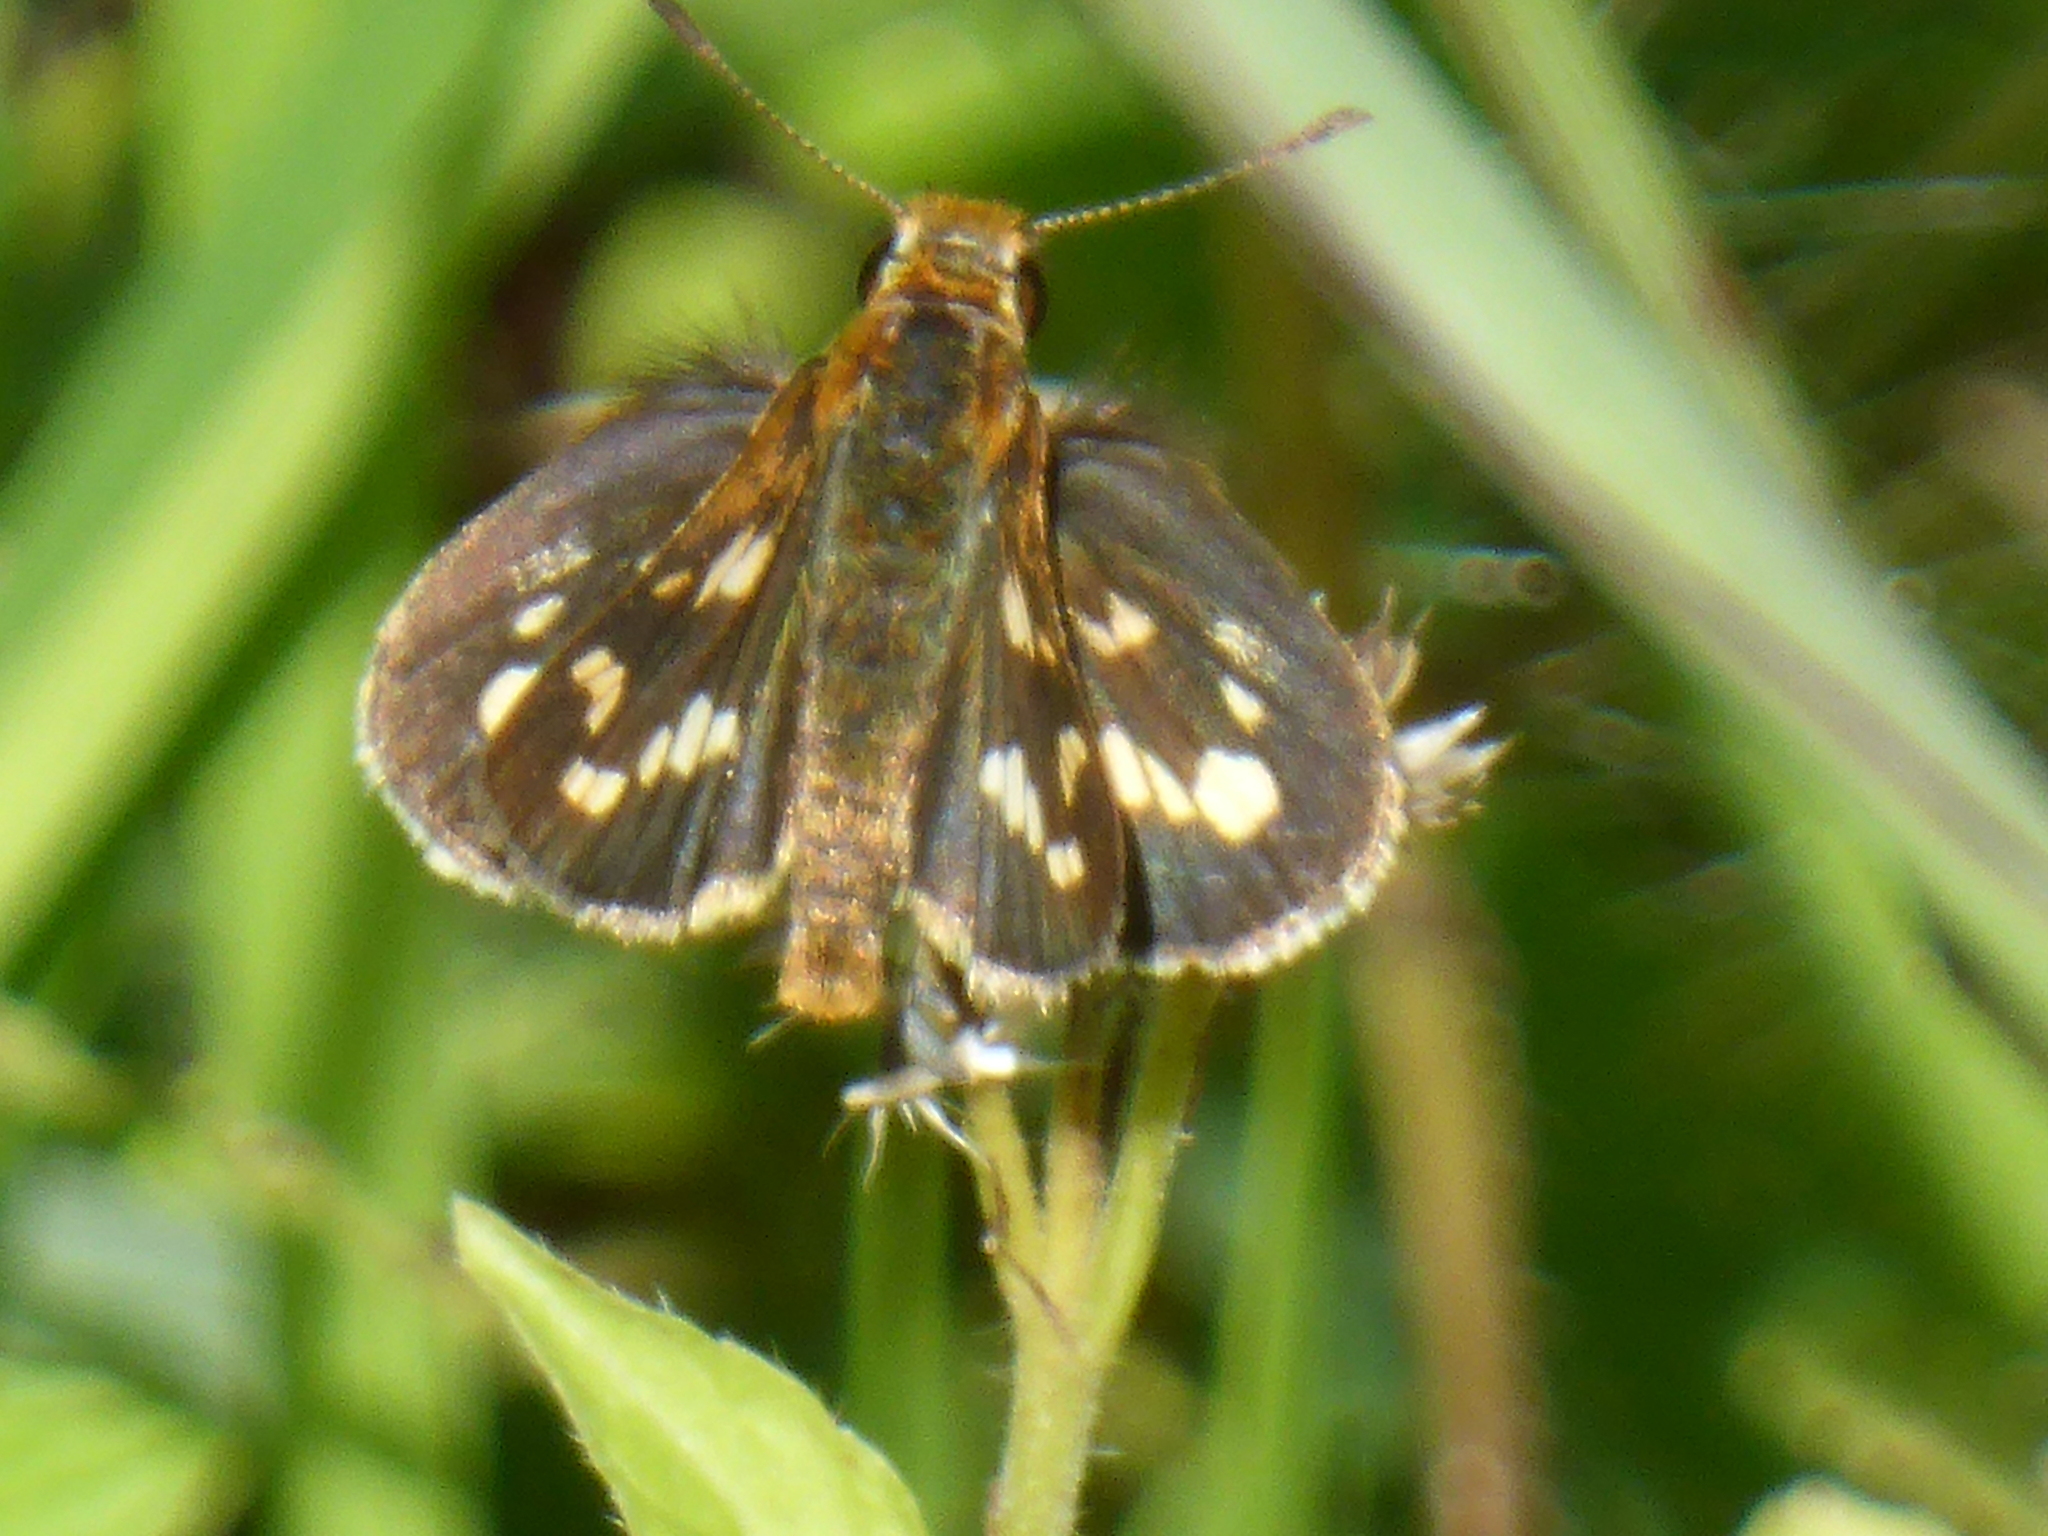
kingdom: Animalia
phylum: Arthropoda
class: Insecta
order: Lepidoptera
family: Hesperiidae
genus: Taractrocera
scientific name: Taractrocera ardonia
